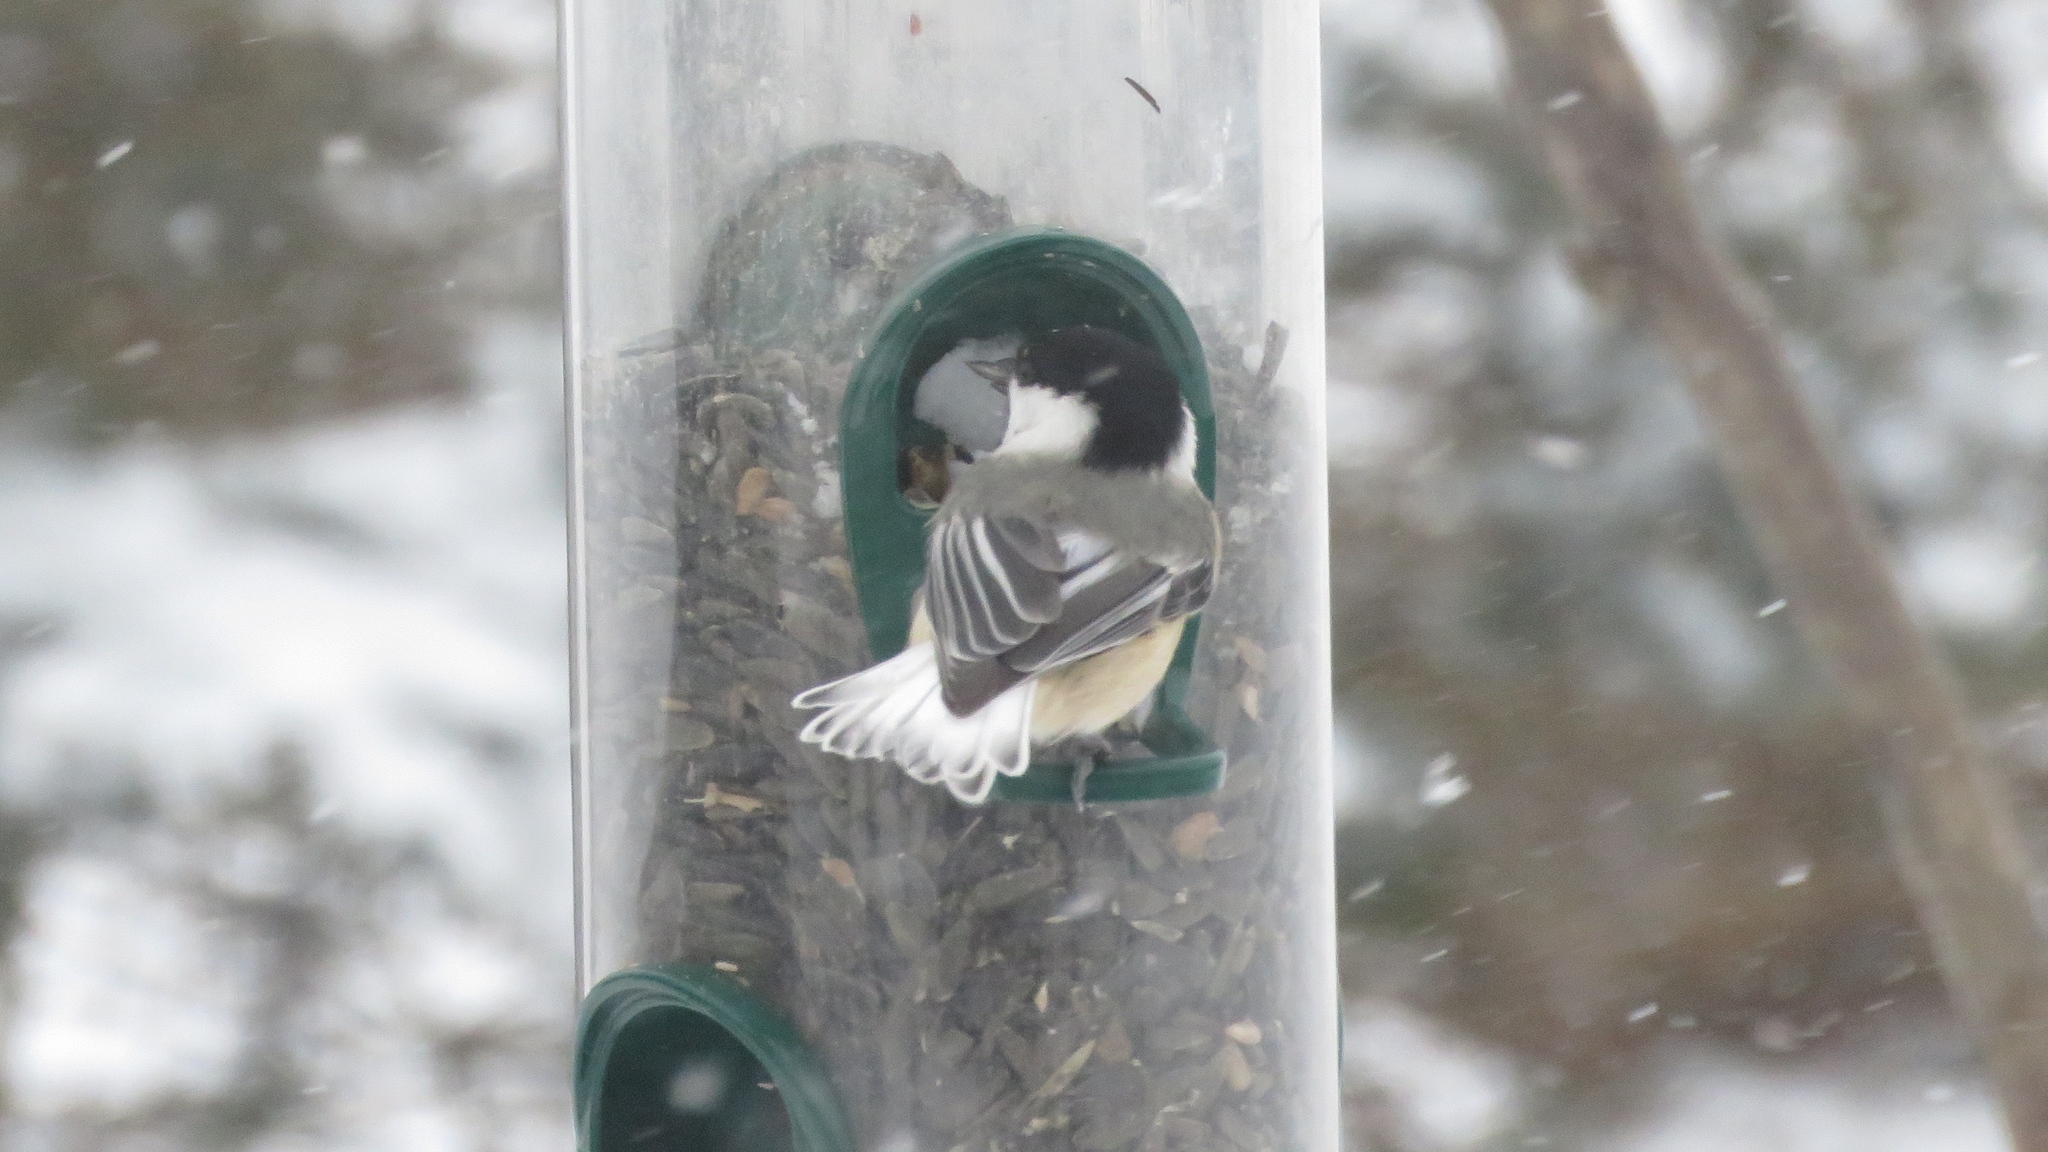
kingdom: Animalia
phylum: Chordata
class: Aves
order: Passeriformes
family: Paridae
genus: Poecile
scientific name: Poecile atricapillus
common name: Black-capped chickadee
